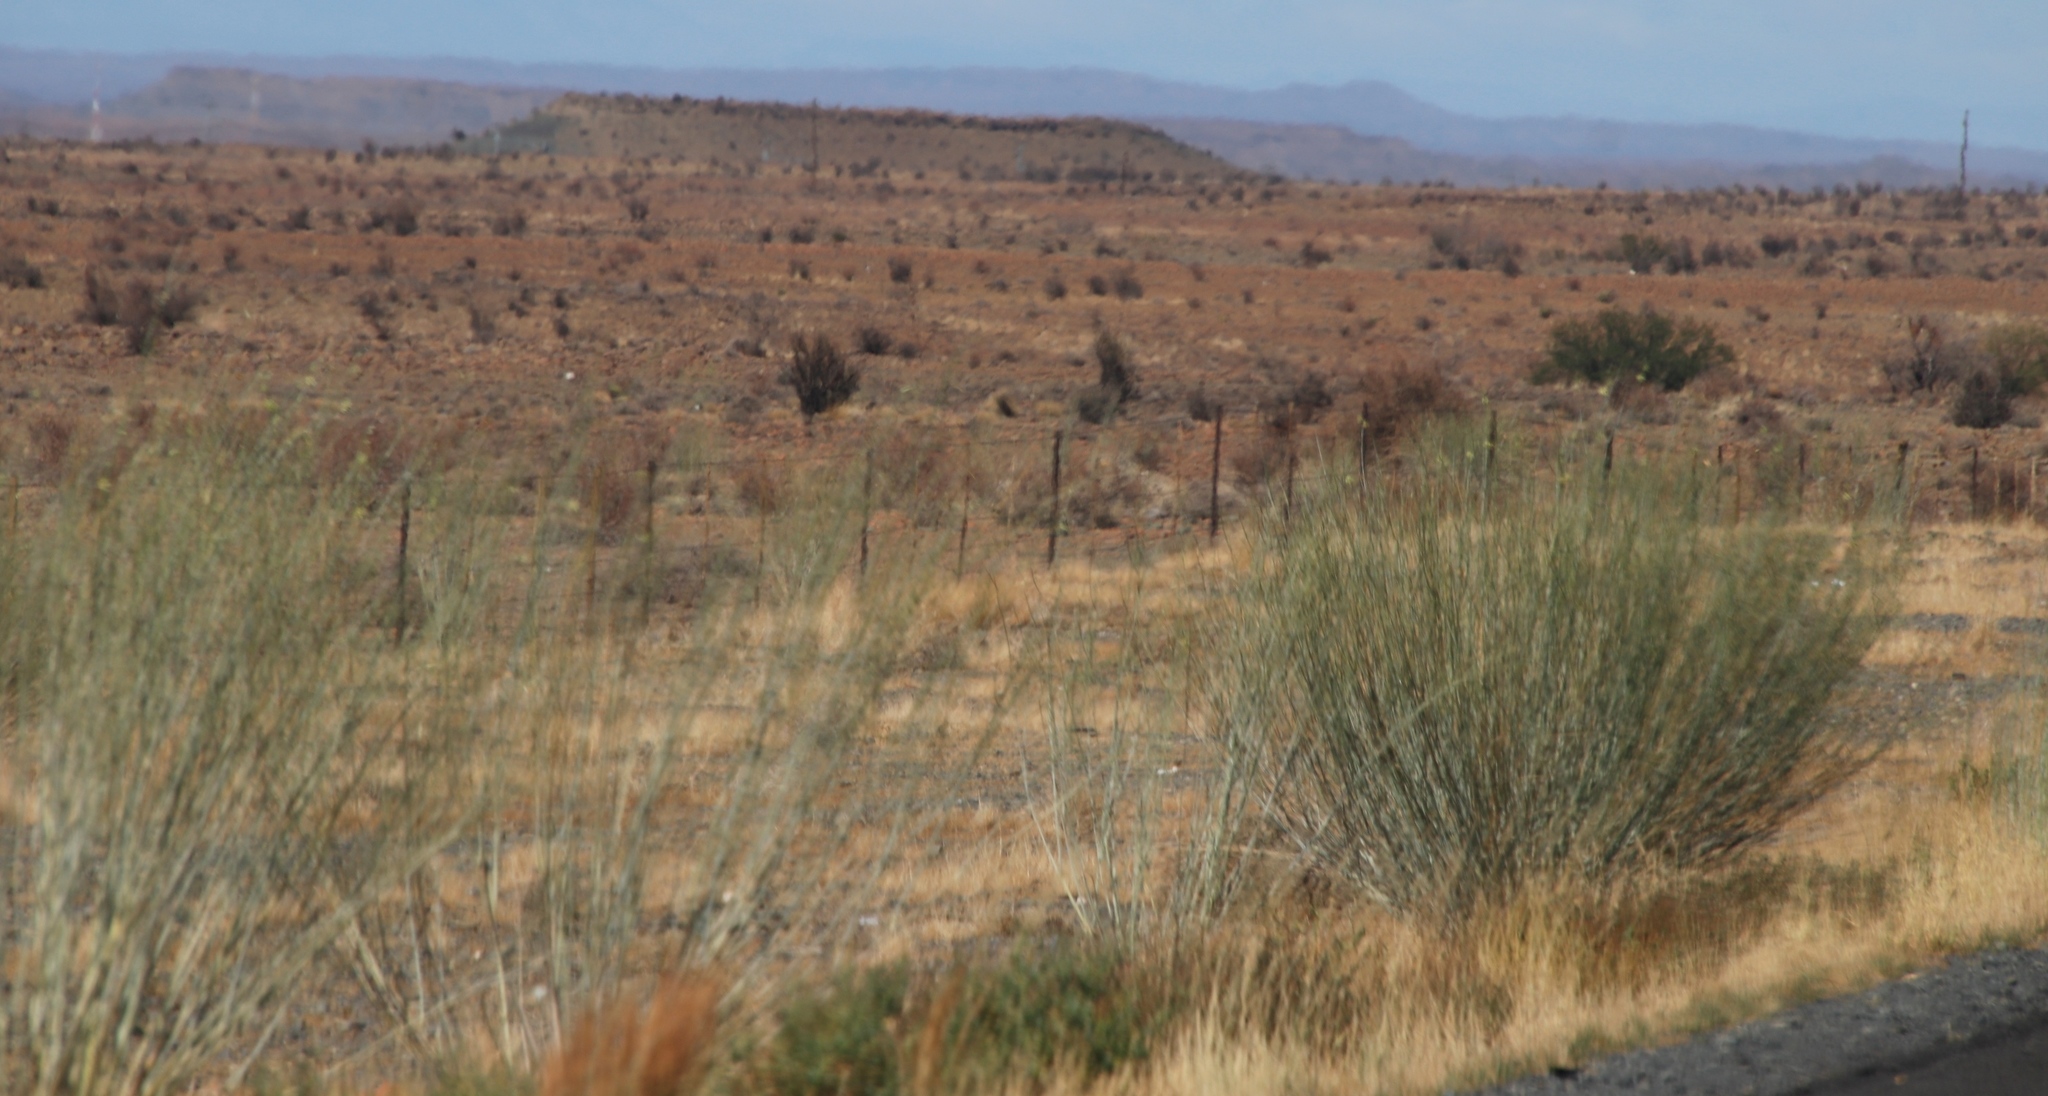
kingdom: Plantae
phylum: Tracheophyta
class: Magnoliopsida
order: Gentianales
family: Apocynaceae
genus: Gomphocarpus
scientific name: Gomphocarpus filiformis
